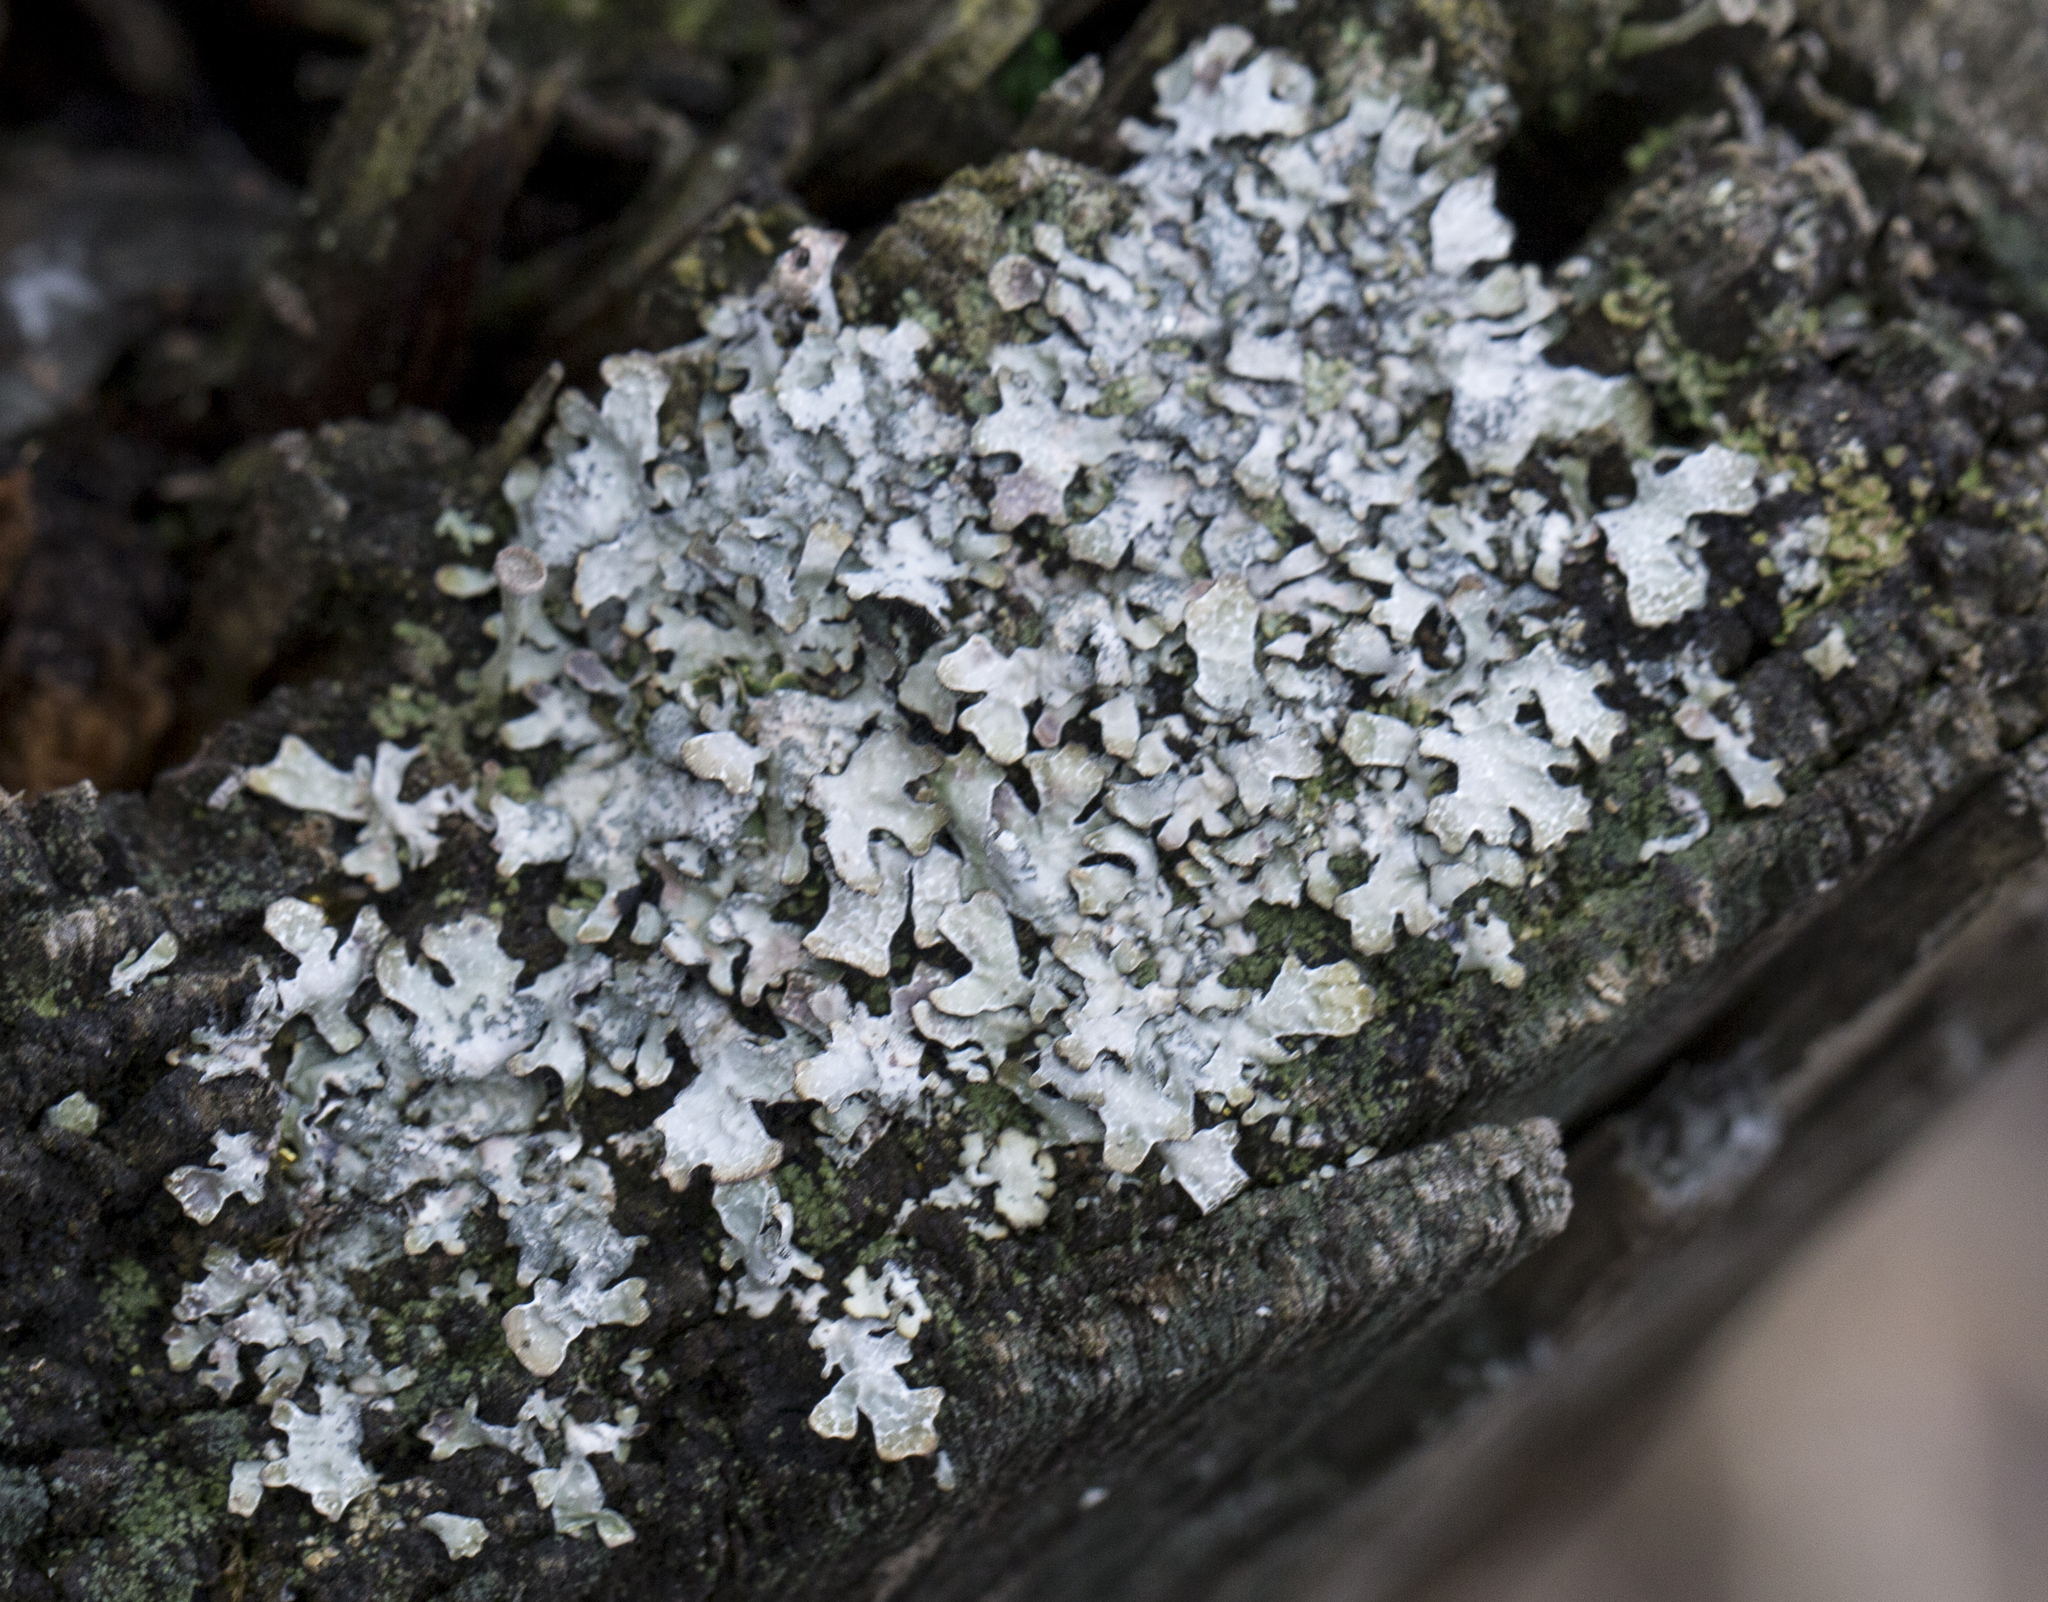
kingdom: Fungi
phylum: Ascomycota
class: Lecanoromycetes
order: Lecanorales
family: Parmeliaceae
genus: Parmelia
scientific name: Parmelia sulcata
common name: Netted shield lichen
